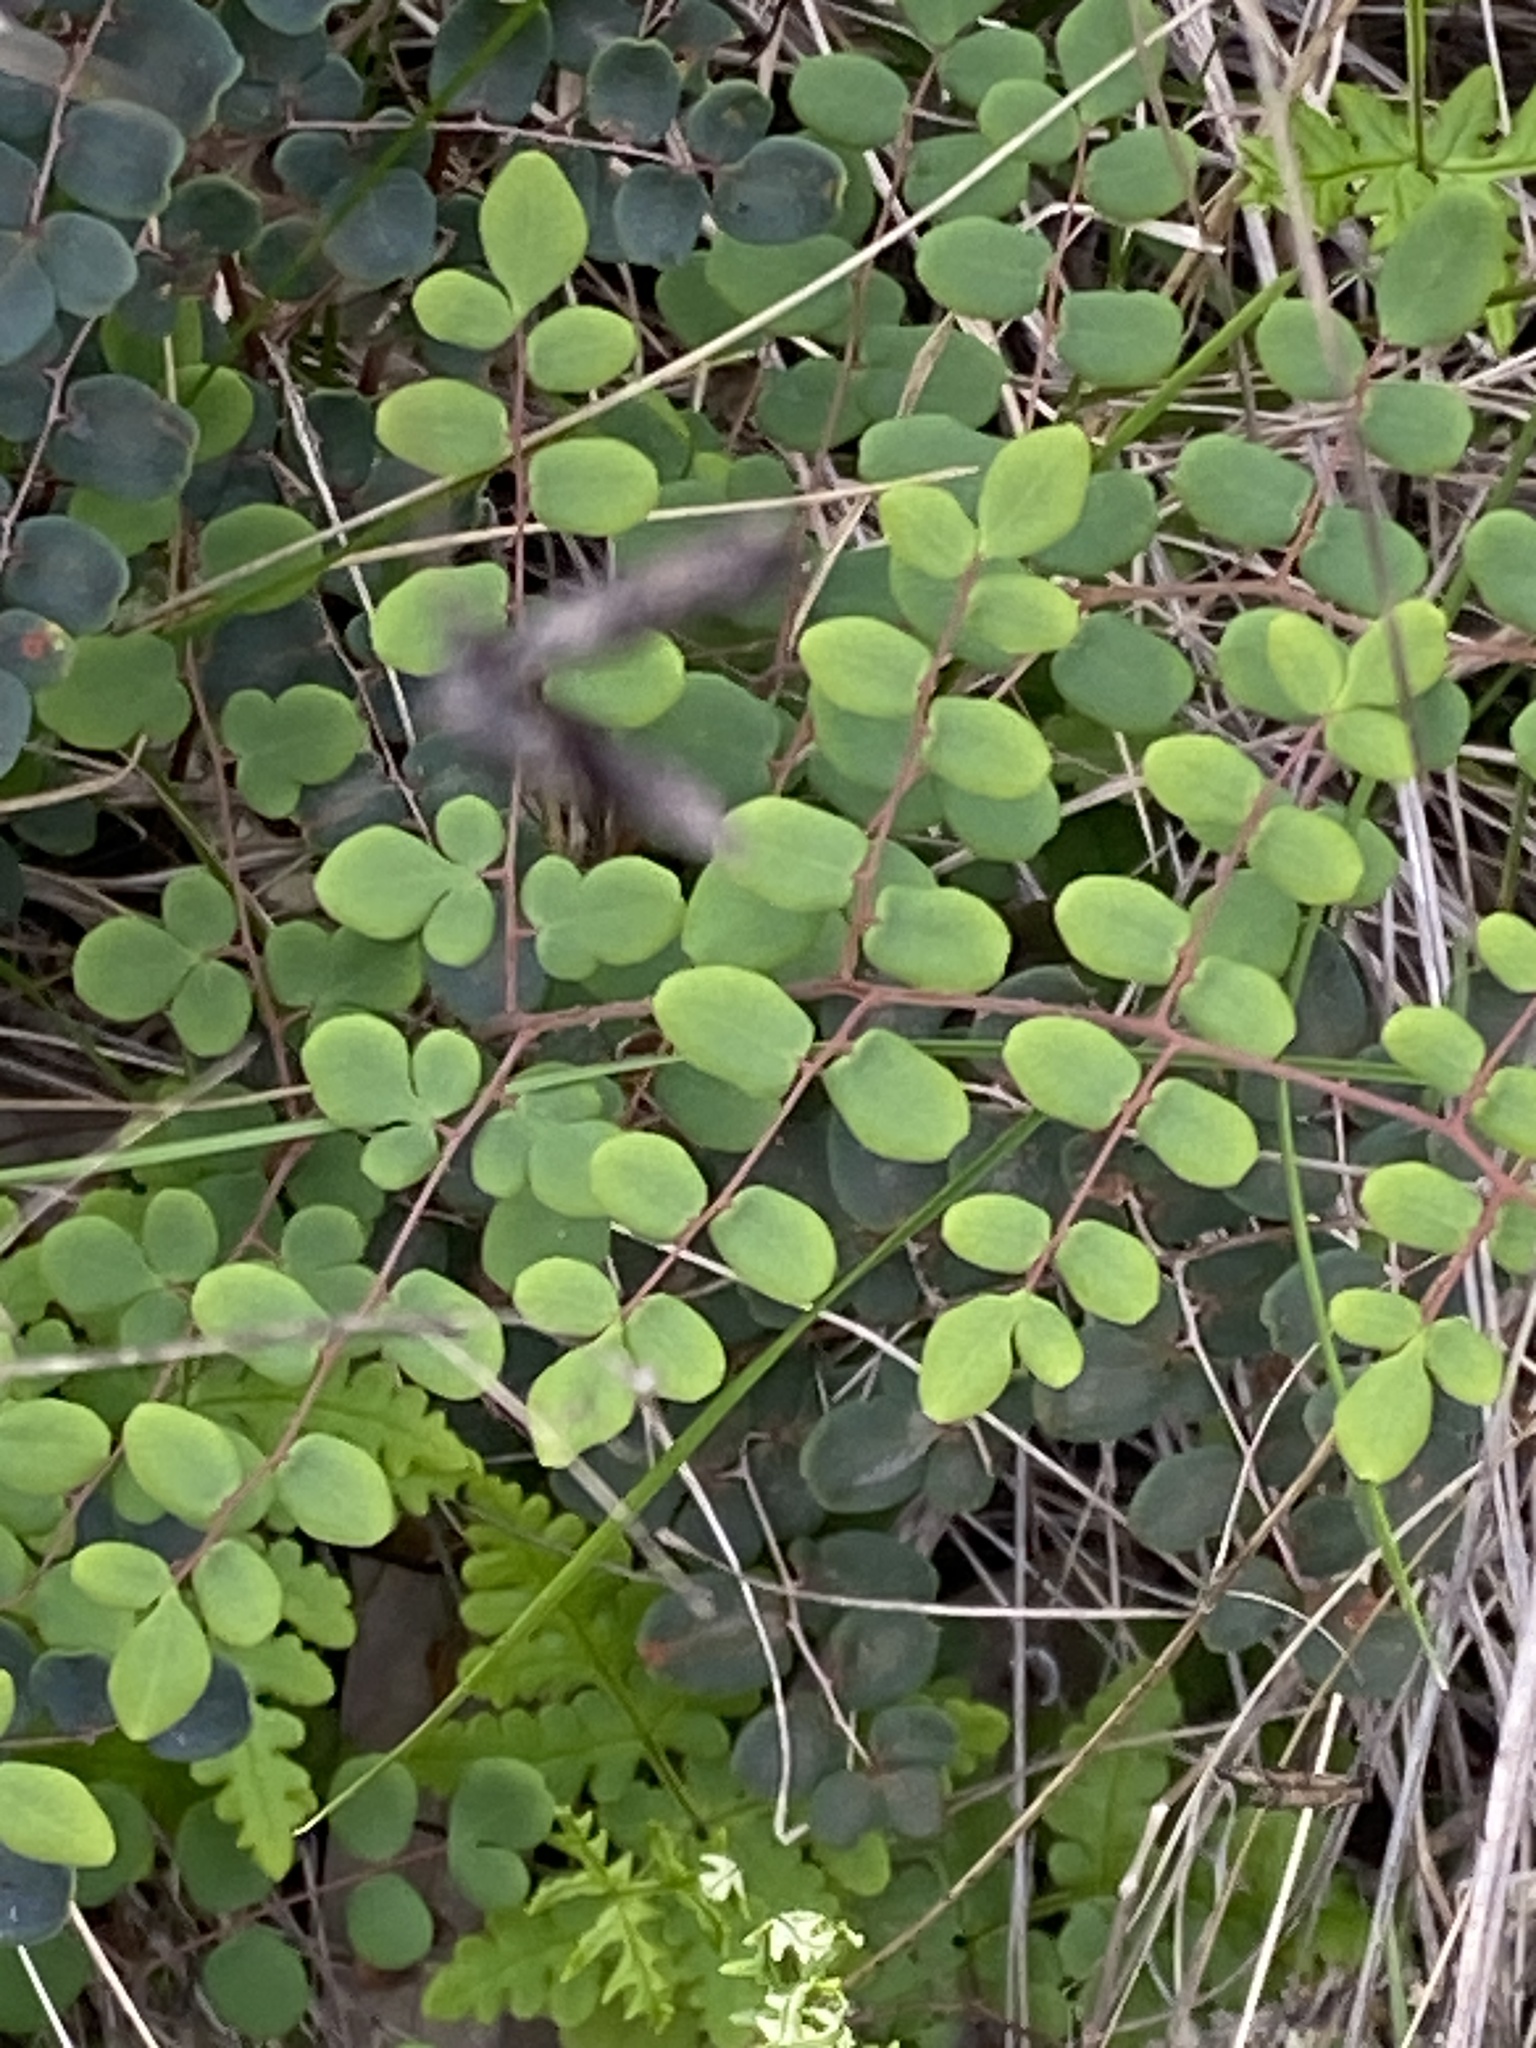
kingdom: Plantae
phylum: Tracheophyta
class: Polypodiopsida
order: Polypodiales
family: Pteridaceae
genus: Pellaea
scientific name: Pellaea andromedifolia
